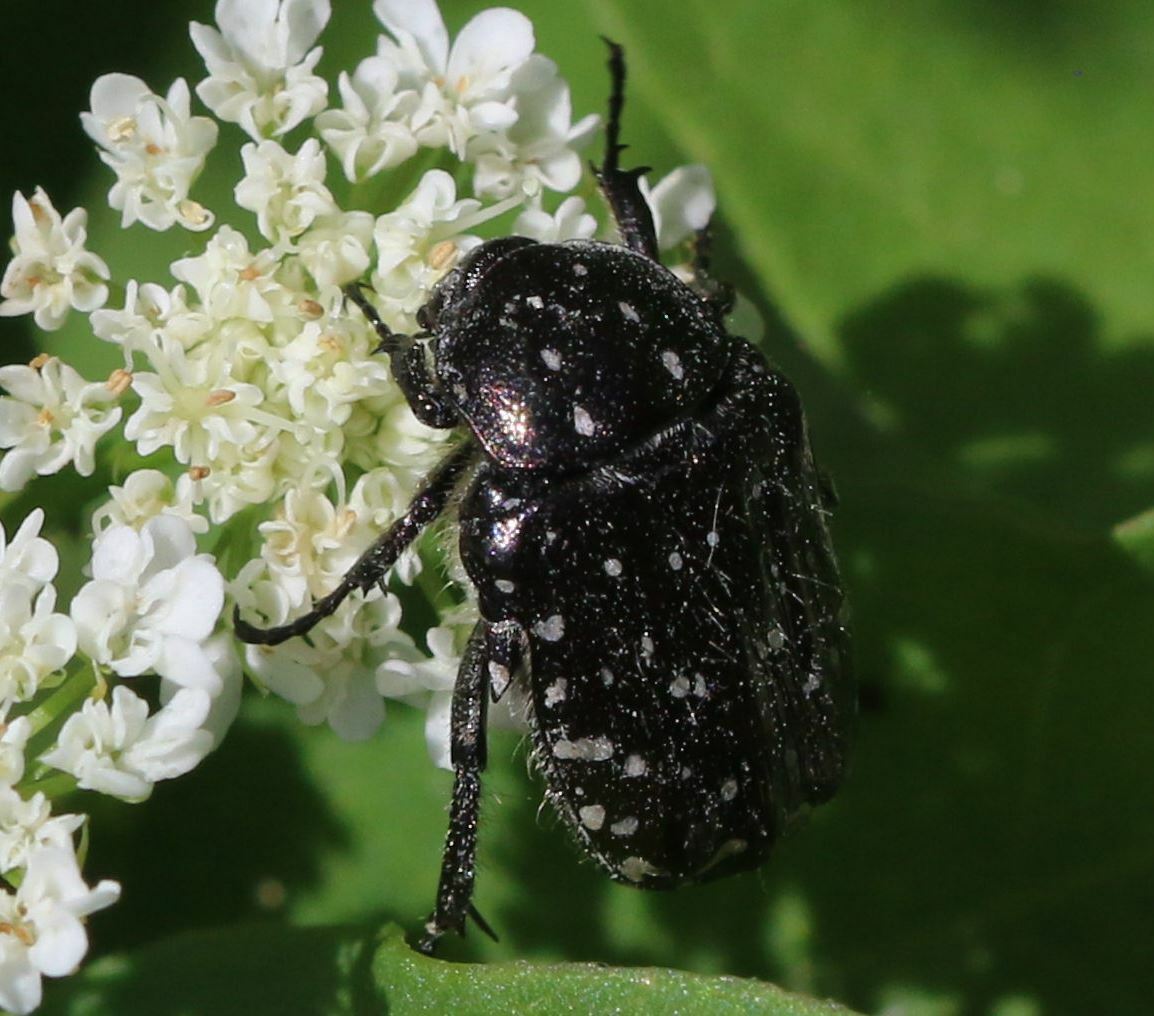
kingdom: Animalia
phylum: Arthropoda
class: Insecta
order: Coleoptera
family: Scarabaeidae
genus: Oxythyrea
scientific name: Oxythyrea funesta
